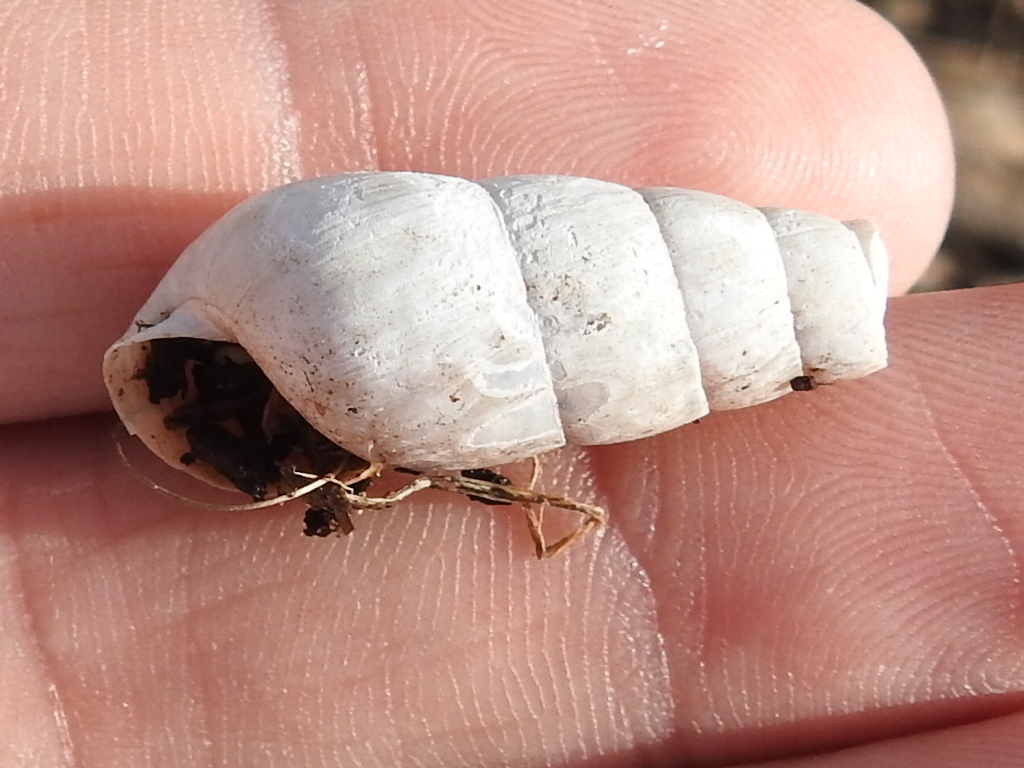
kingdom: Animalia
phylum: Mollusca
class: Gastropoda
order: Stylommatophora
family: Achatinidae
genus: Rumina
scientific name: Rumina decollata
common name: Decollate snail
